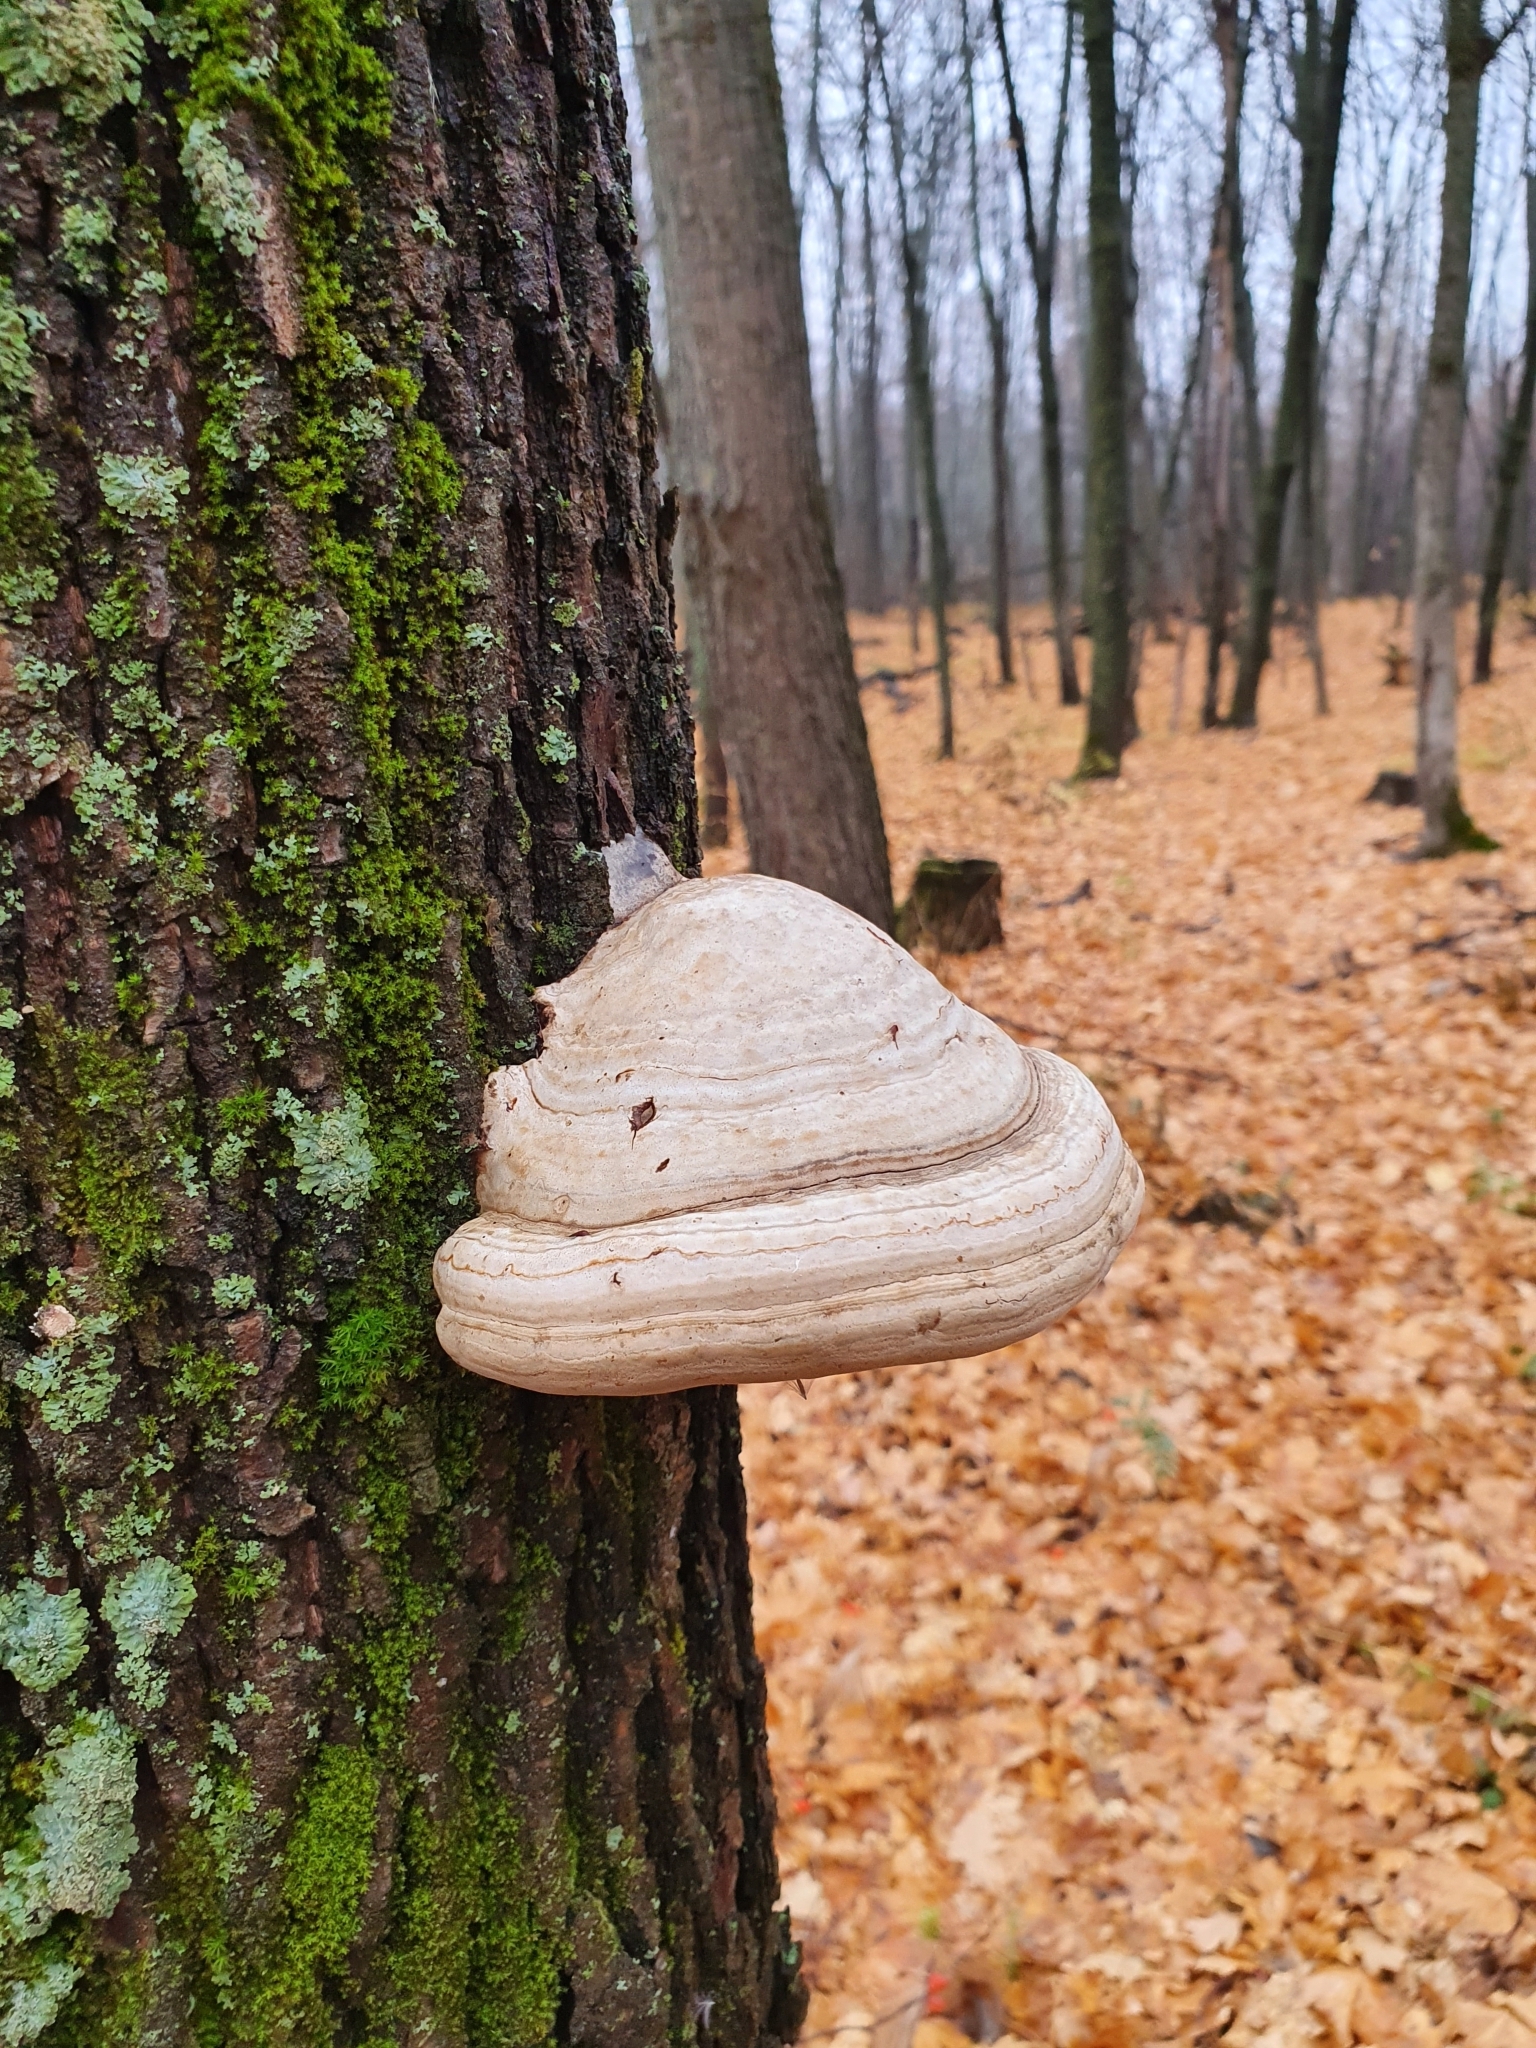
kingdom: Fungi
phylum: Basidiomycota
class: Agaricomycetes
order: Polyporales
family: Polyporaceae
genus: Fomes
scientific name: Fomes fomentarius
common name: Hoof fungus
